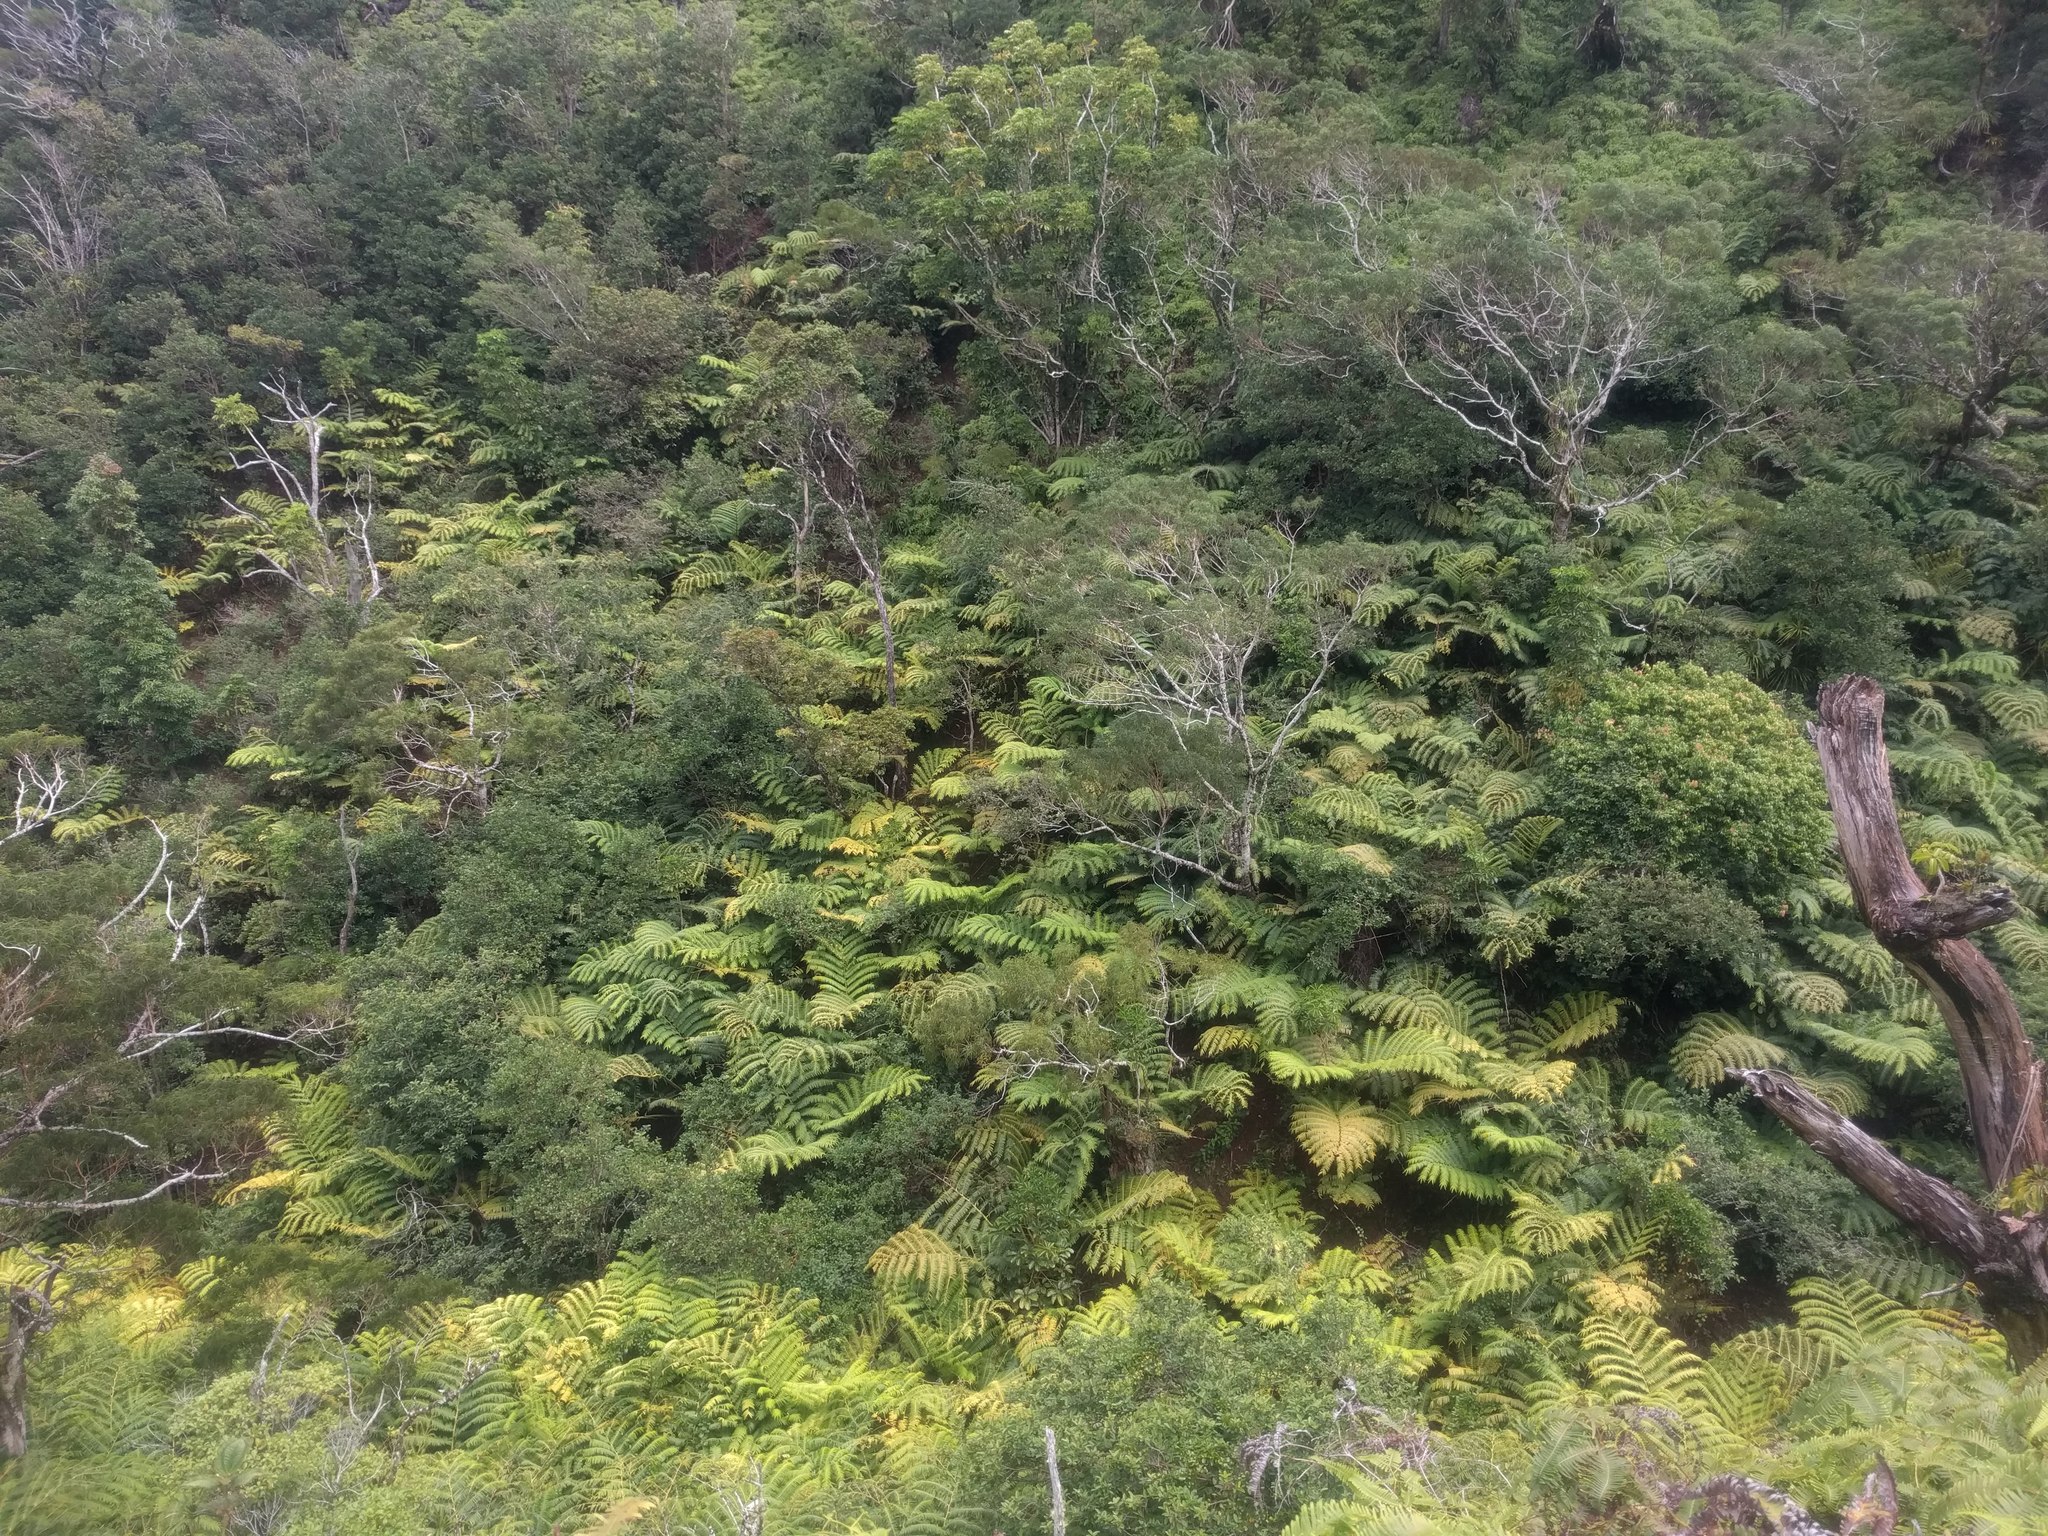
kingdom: Plantae
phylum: Tracheophyta
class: Polypodiopsida
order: Marattiales
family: Marattiaceae
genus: Angiopteris
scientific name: Angiopteris evecta
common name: Mule's-foot fern
